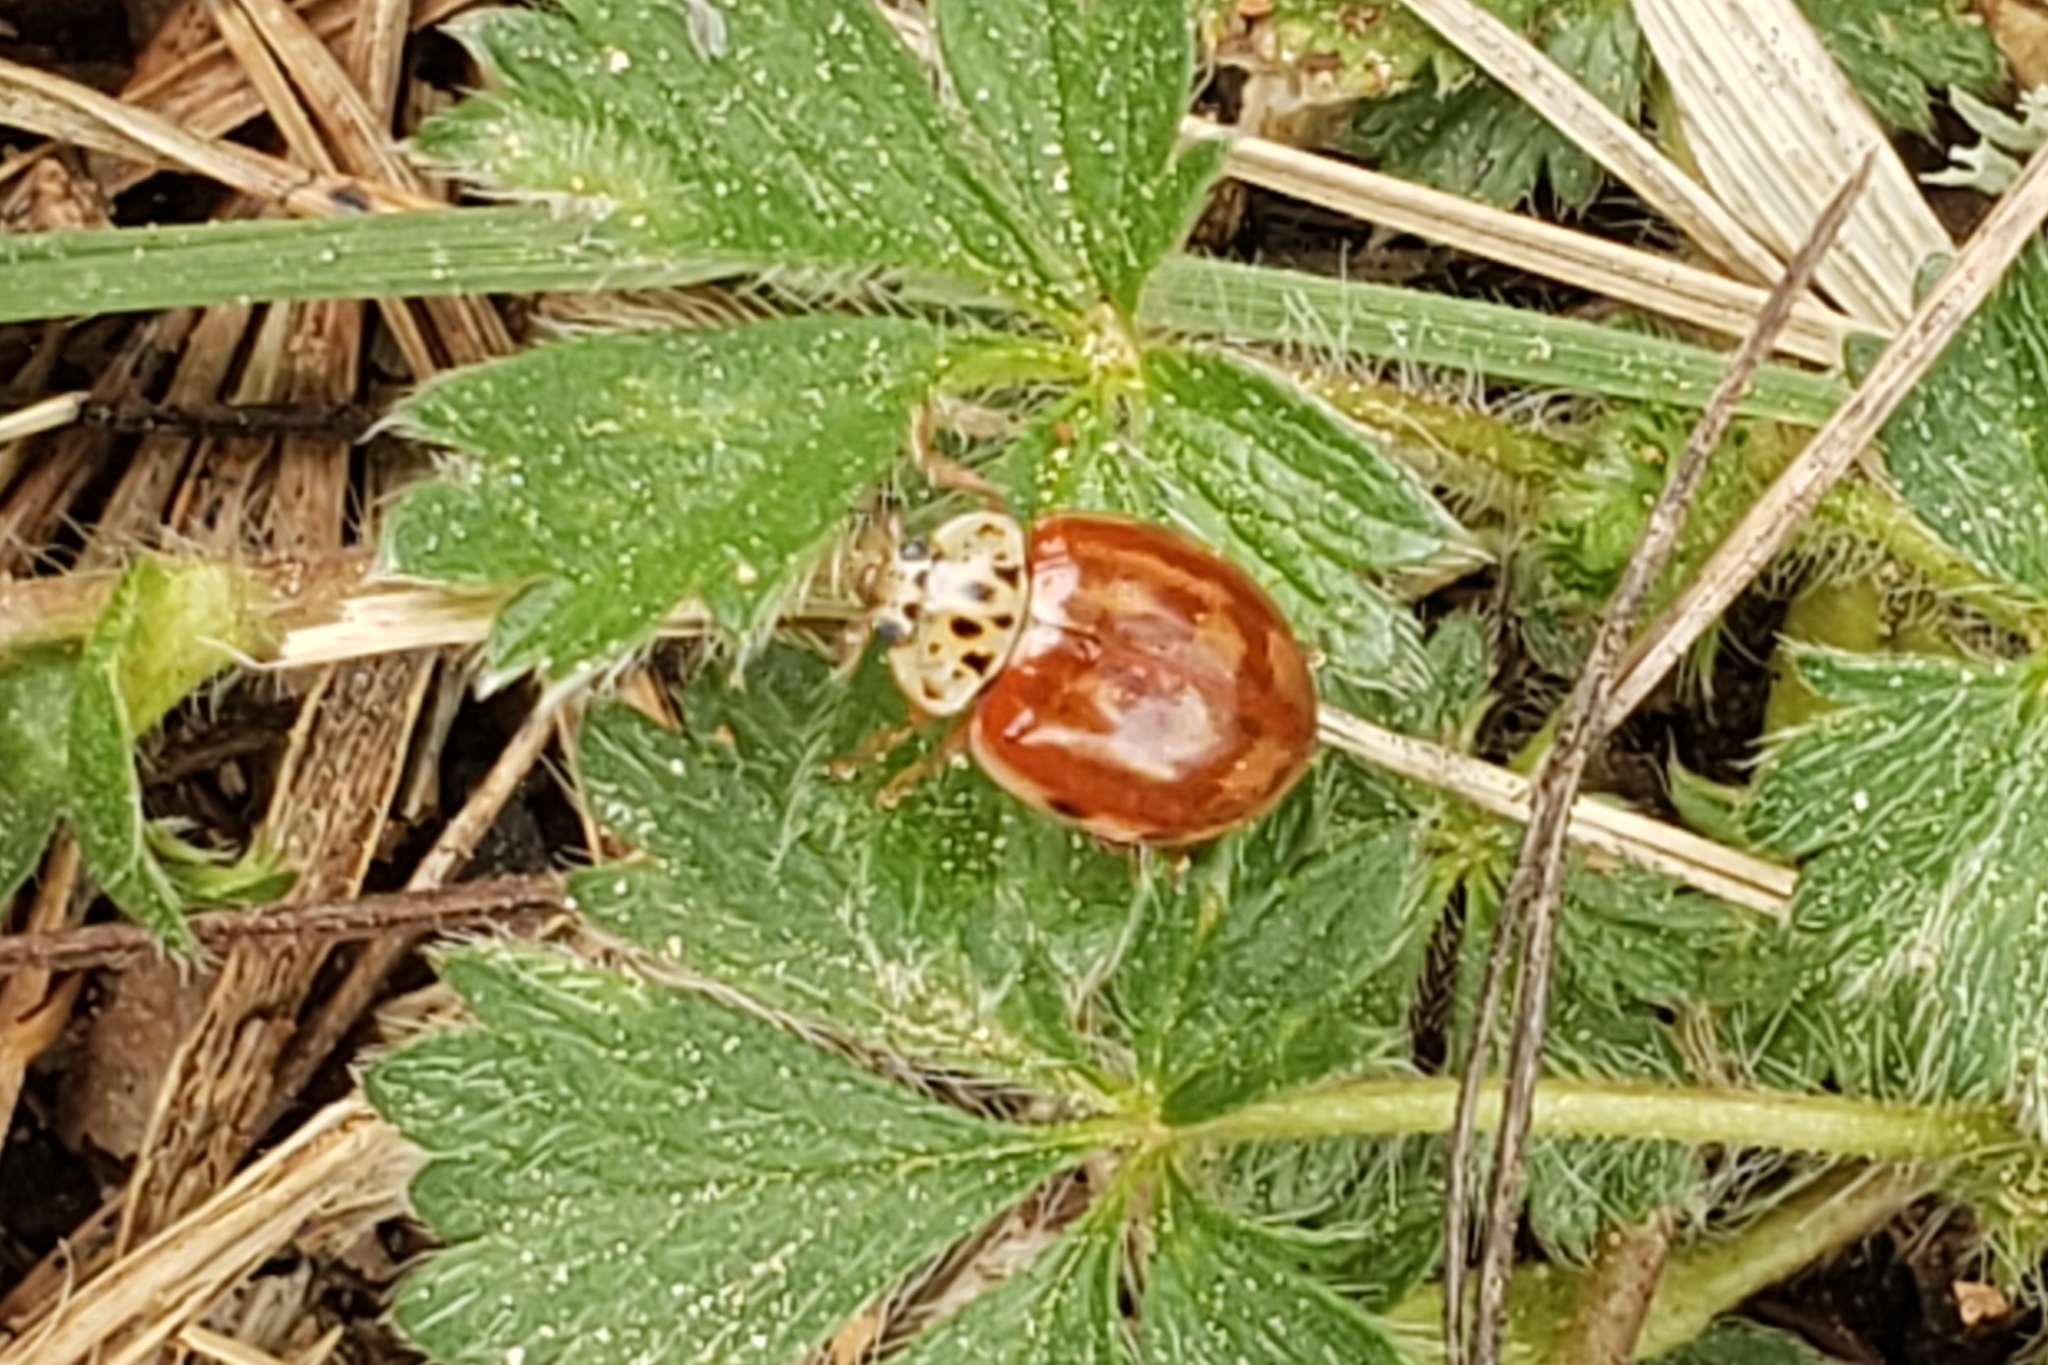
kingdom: Animalia
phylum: Arthropoda
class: Insecta
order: Coleoptera
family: Coccinellidae
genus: Harmonia
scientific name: Harmonia quadripunctata
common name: Cream-streaked ladybird
